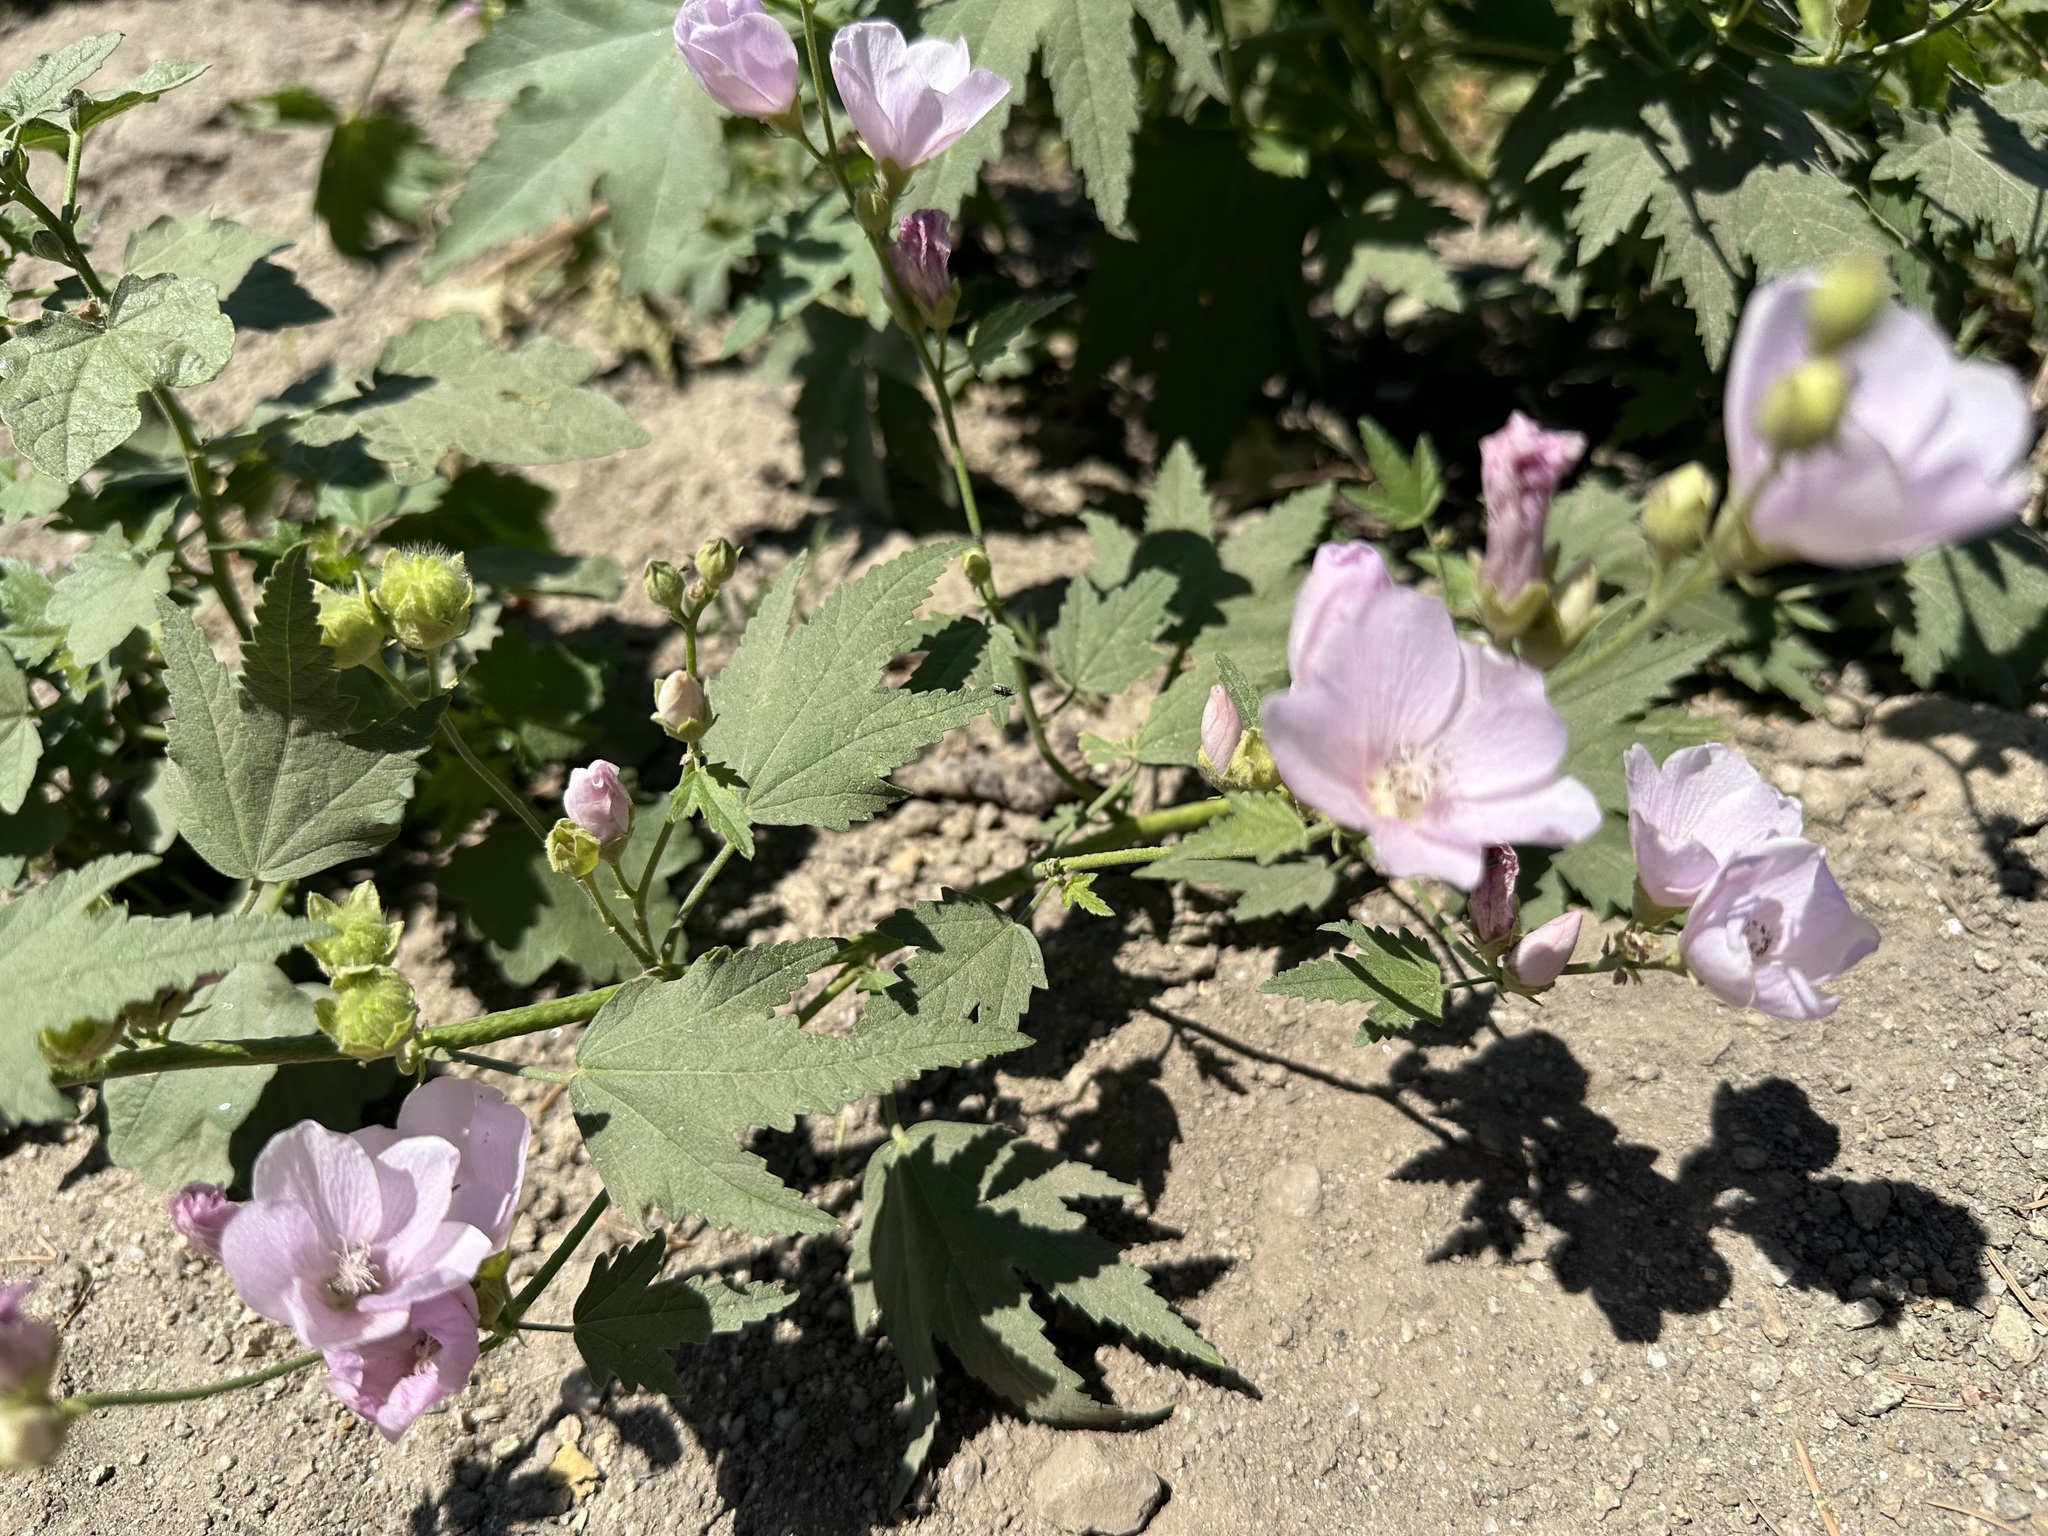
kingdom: Plantae
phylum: Tracheophyta
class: Magnoliopsida
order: Malvales
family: Malvaceae
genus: Iliamna
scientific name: Iliamna rivularis
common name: Wild hollyhock
